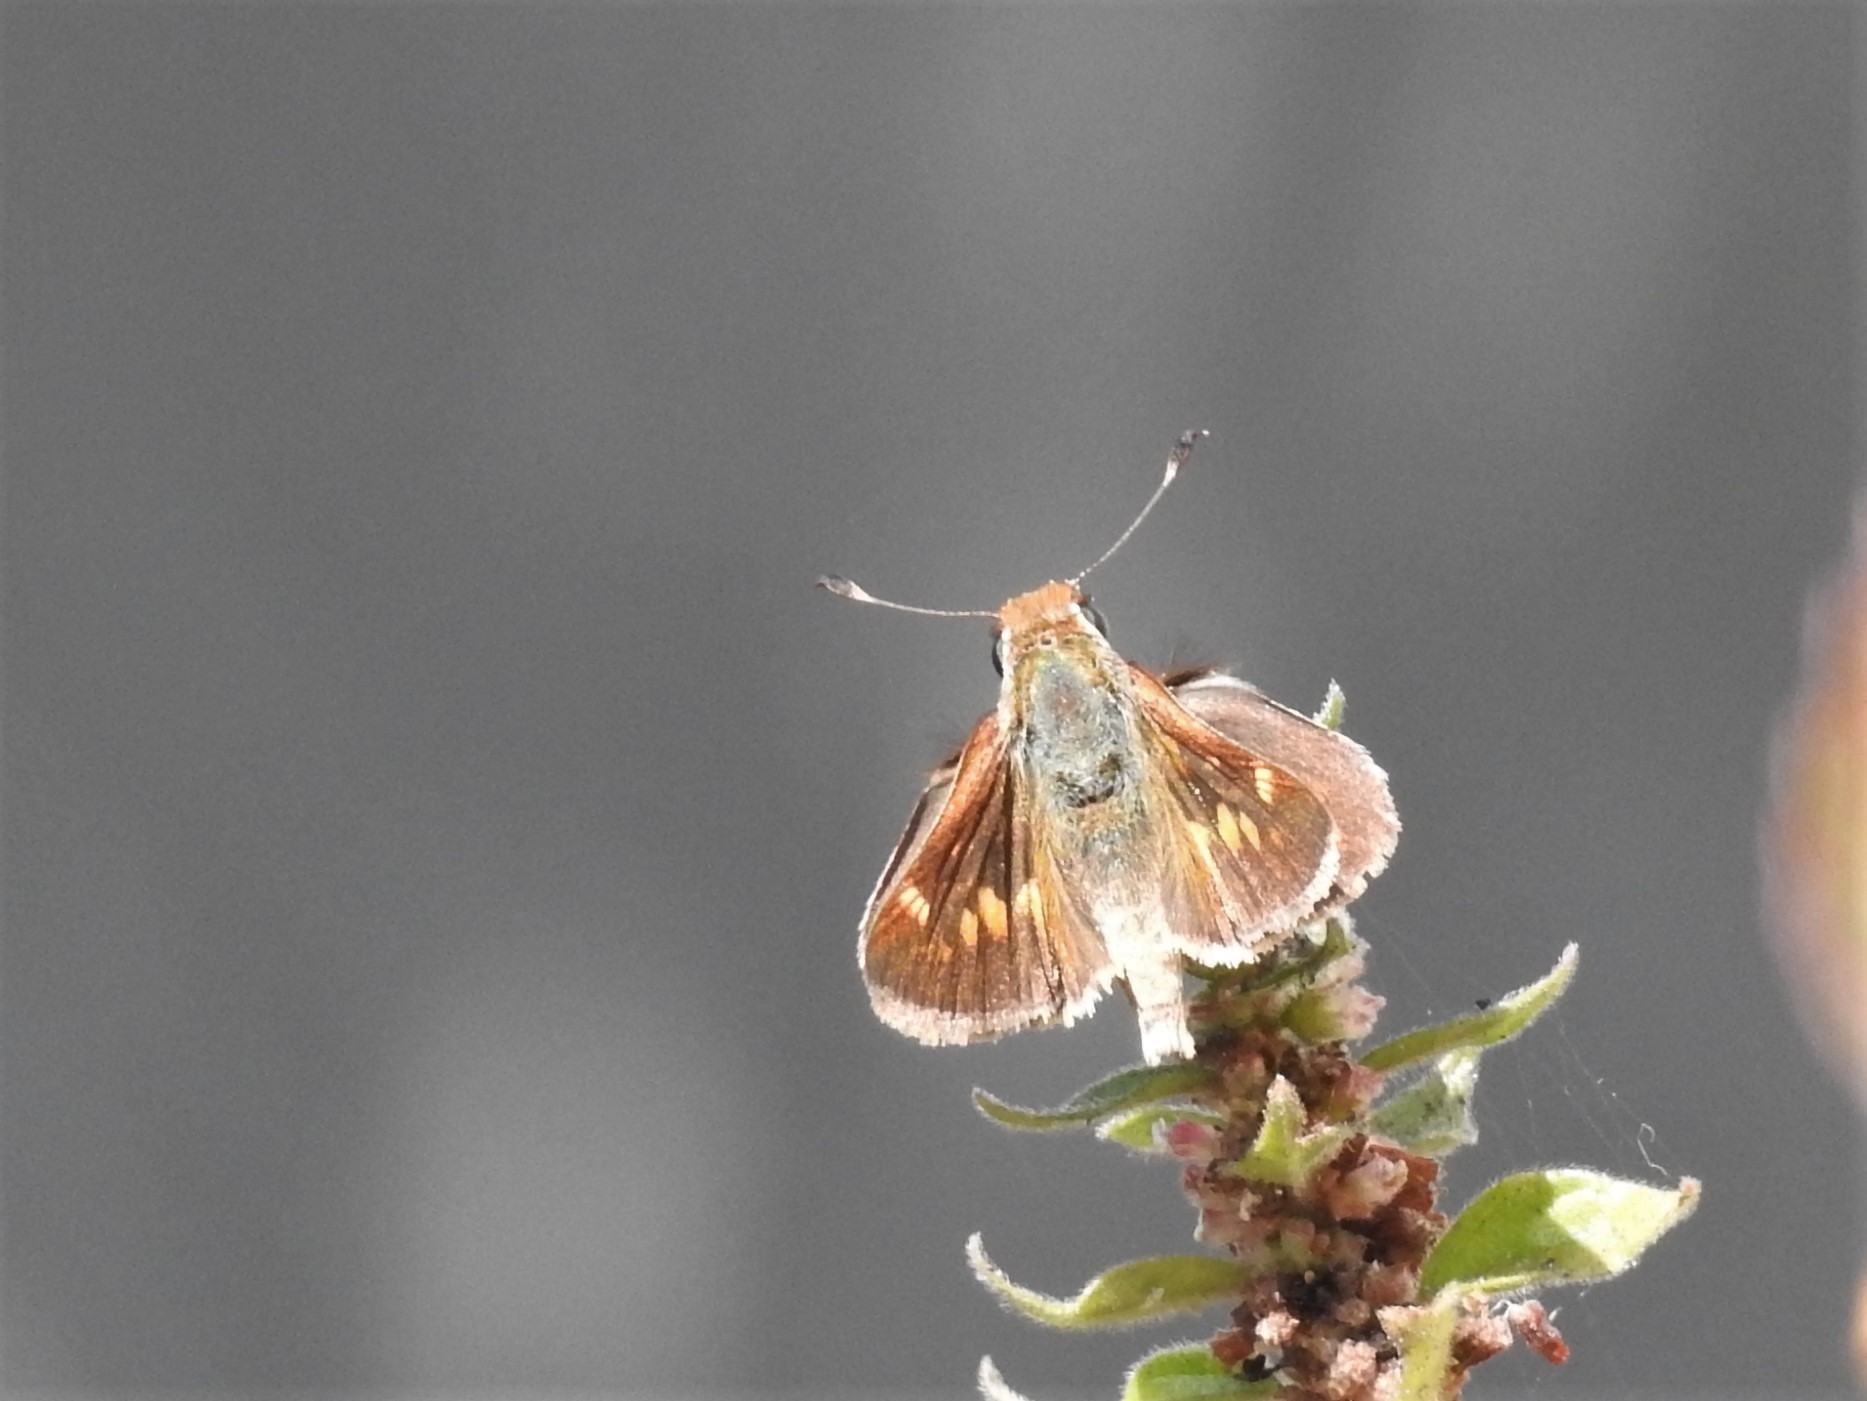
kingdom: Animalia
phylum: Arthropoda
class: Insecta
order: Lepidoptera
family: Hesperiidae
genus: Lon
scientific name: Lon melane
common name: Umber skipper
